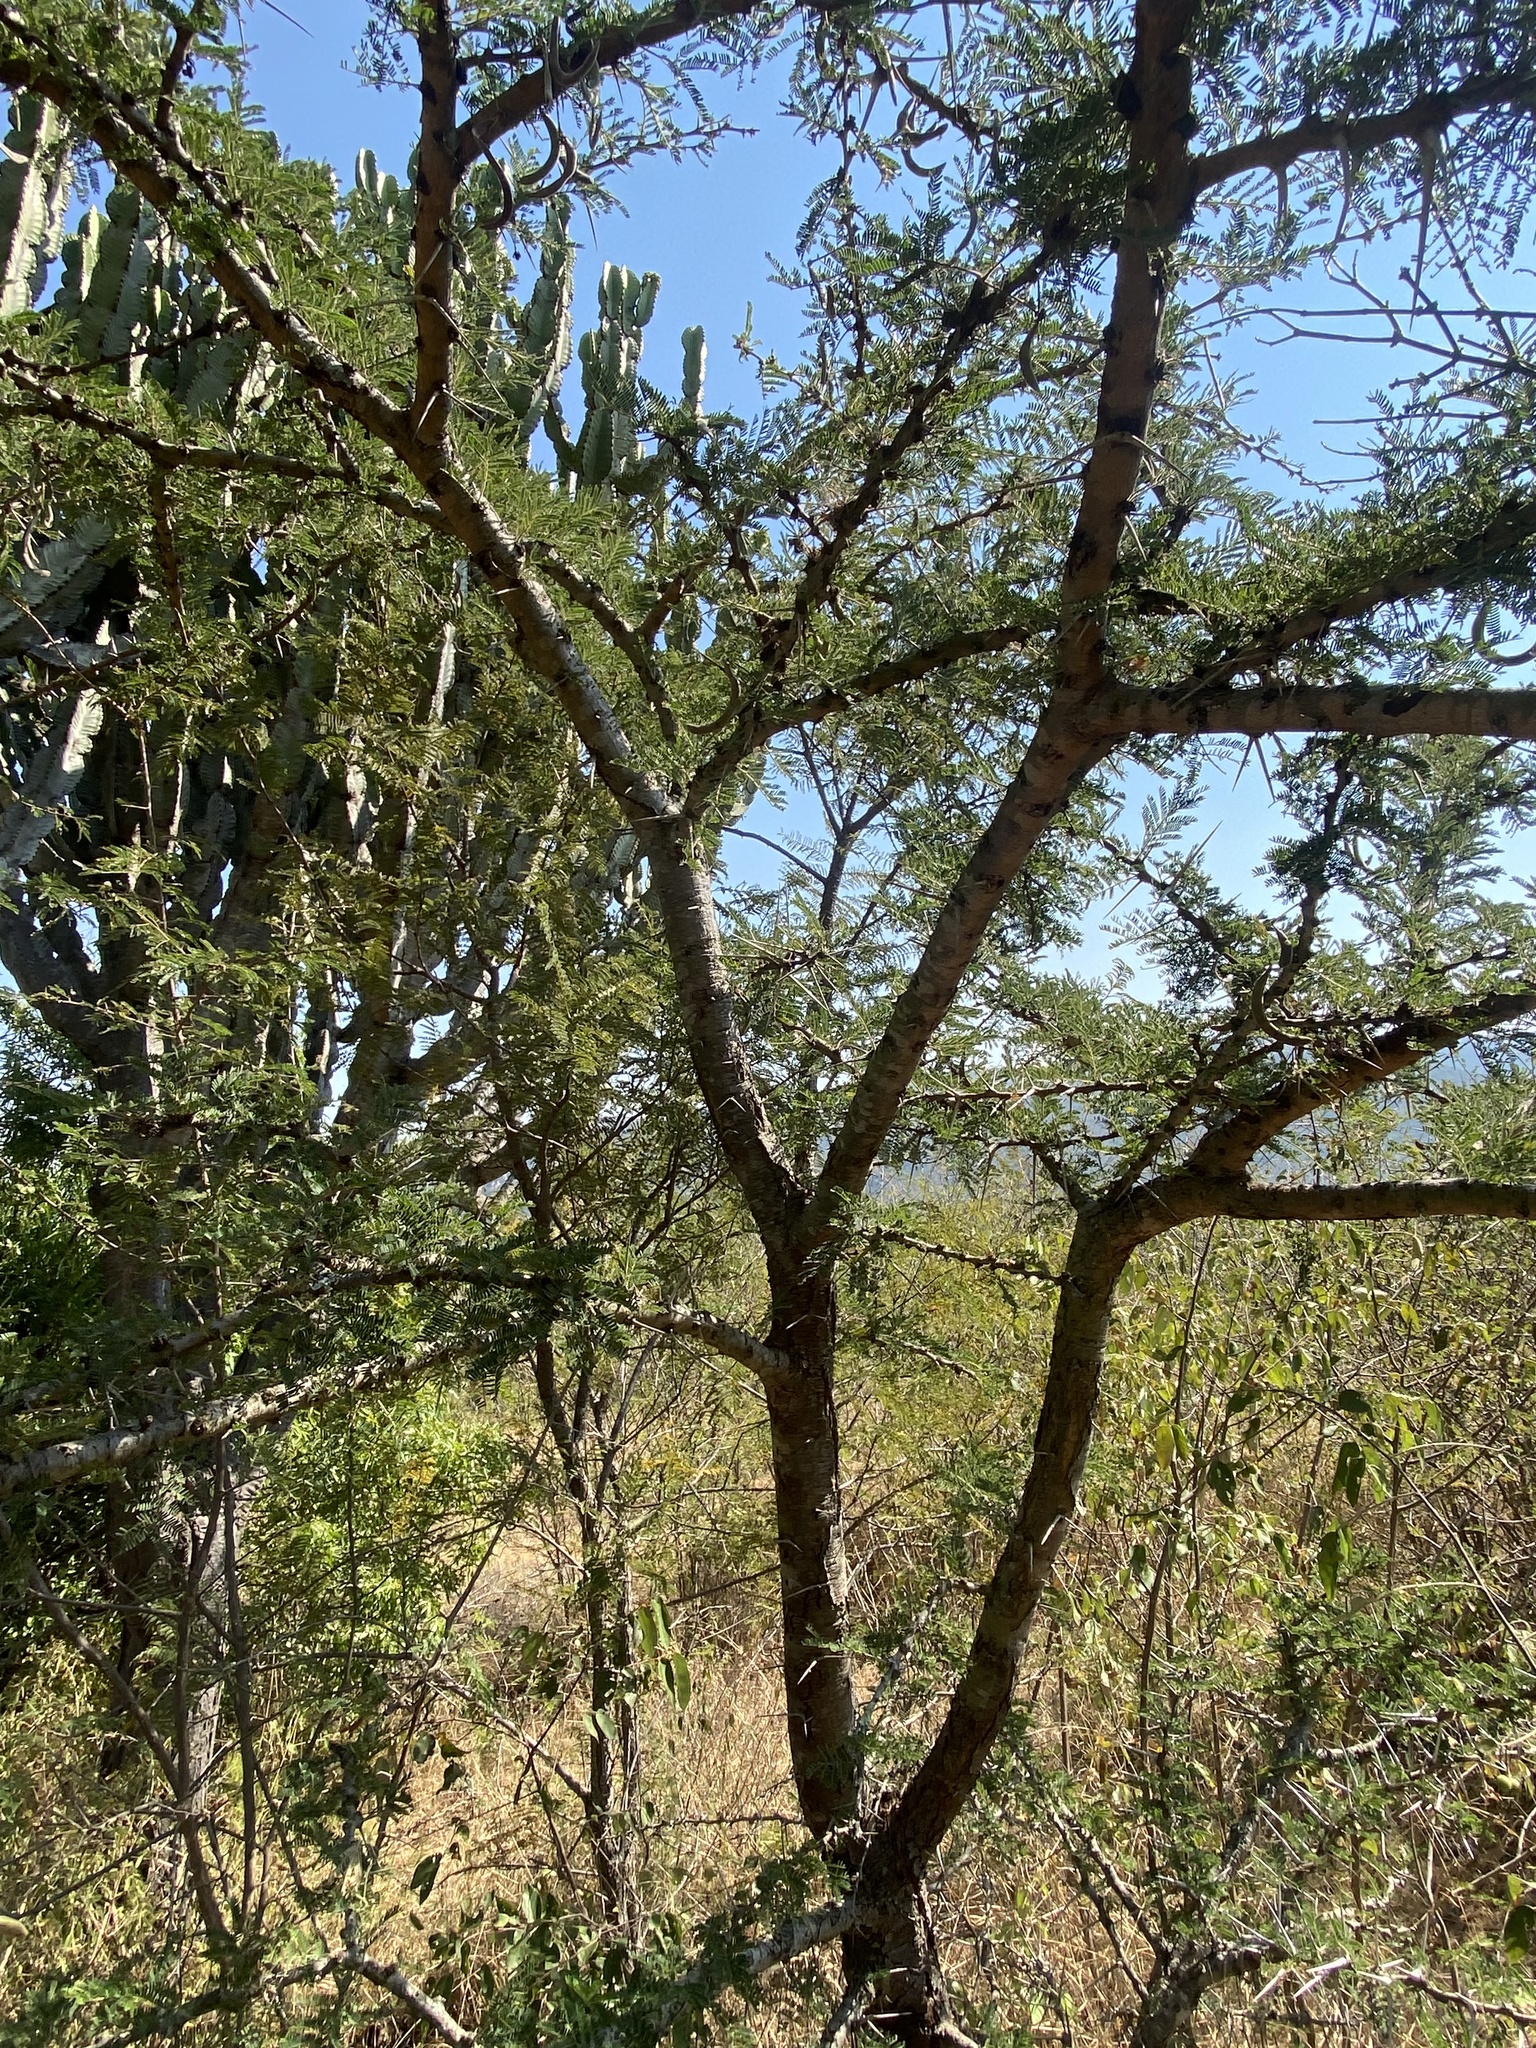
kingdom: Plantae
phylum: Tracheophyta
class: Magnoliopsida
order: Fabales
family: Fabaceae
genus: Vachellia
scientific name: Vachellia gerrardii
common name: Redthorn
